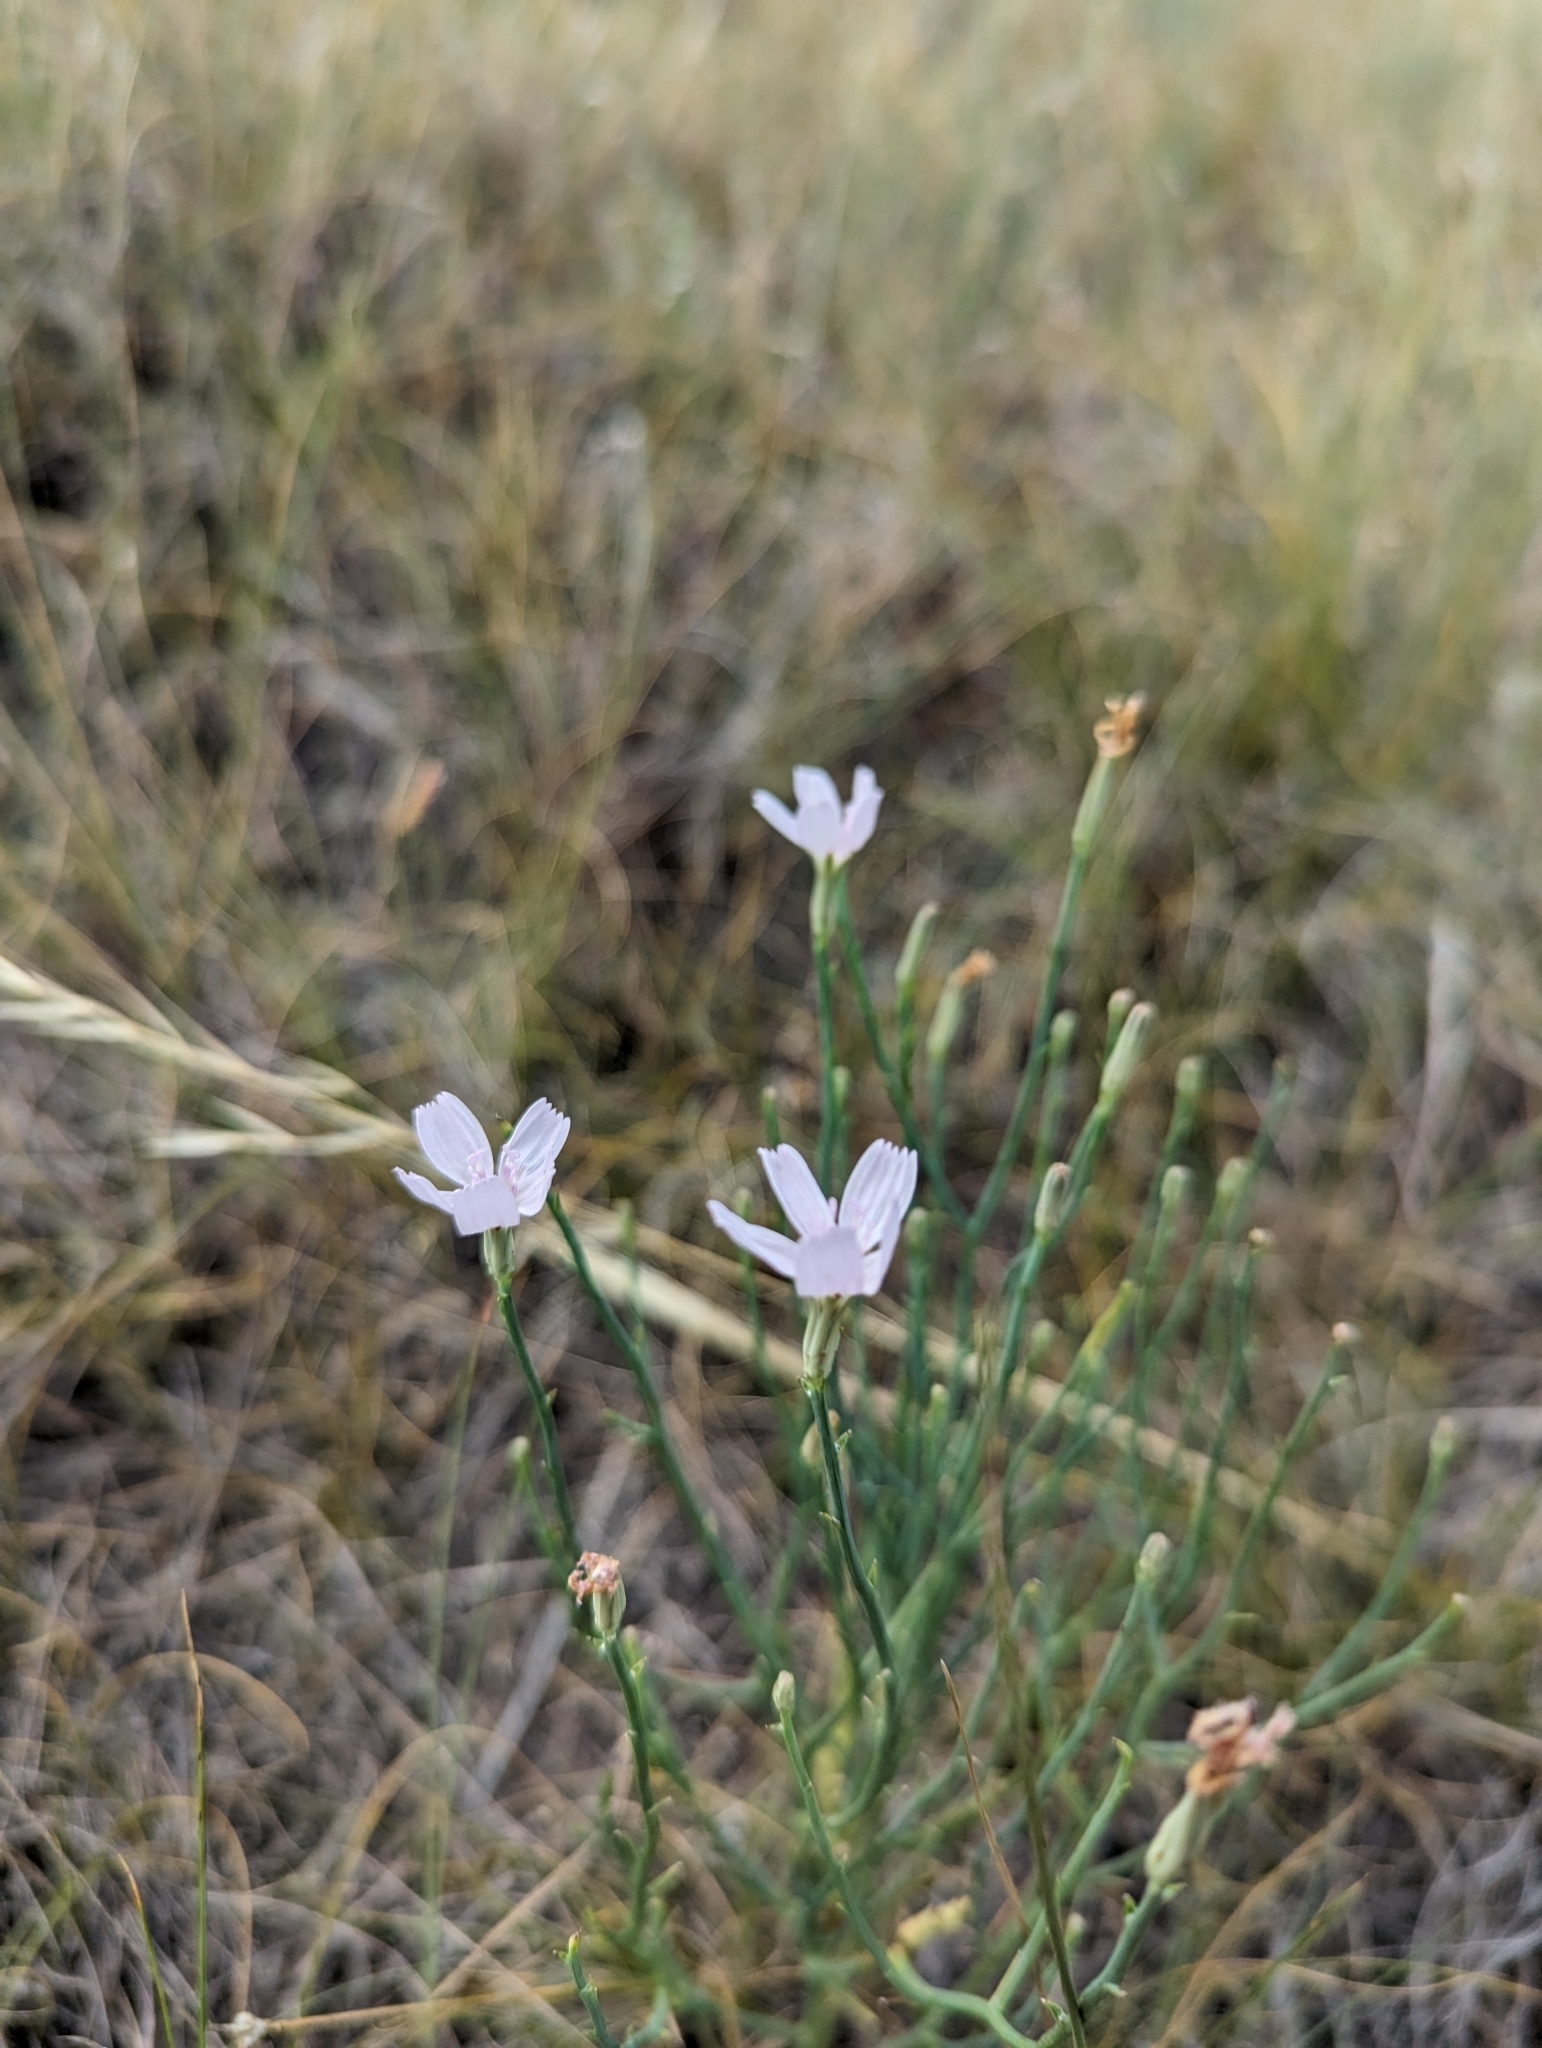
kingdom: Plantae
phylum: Tracheophyta
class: Magnoliopsida
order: Asterales
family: Asteraceae
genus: Lygodesmia
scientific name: Lygodesmia juncea
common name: Common skeletonweed
